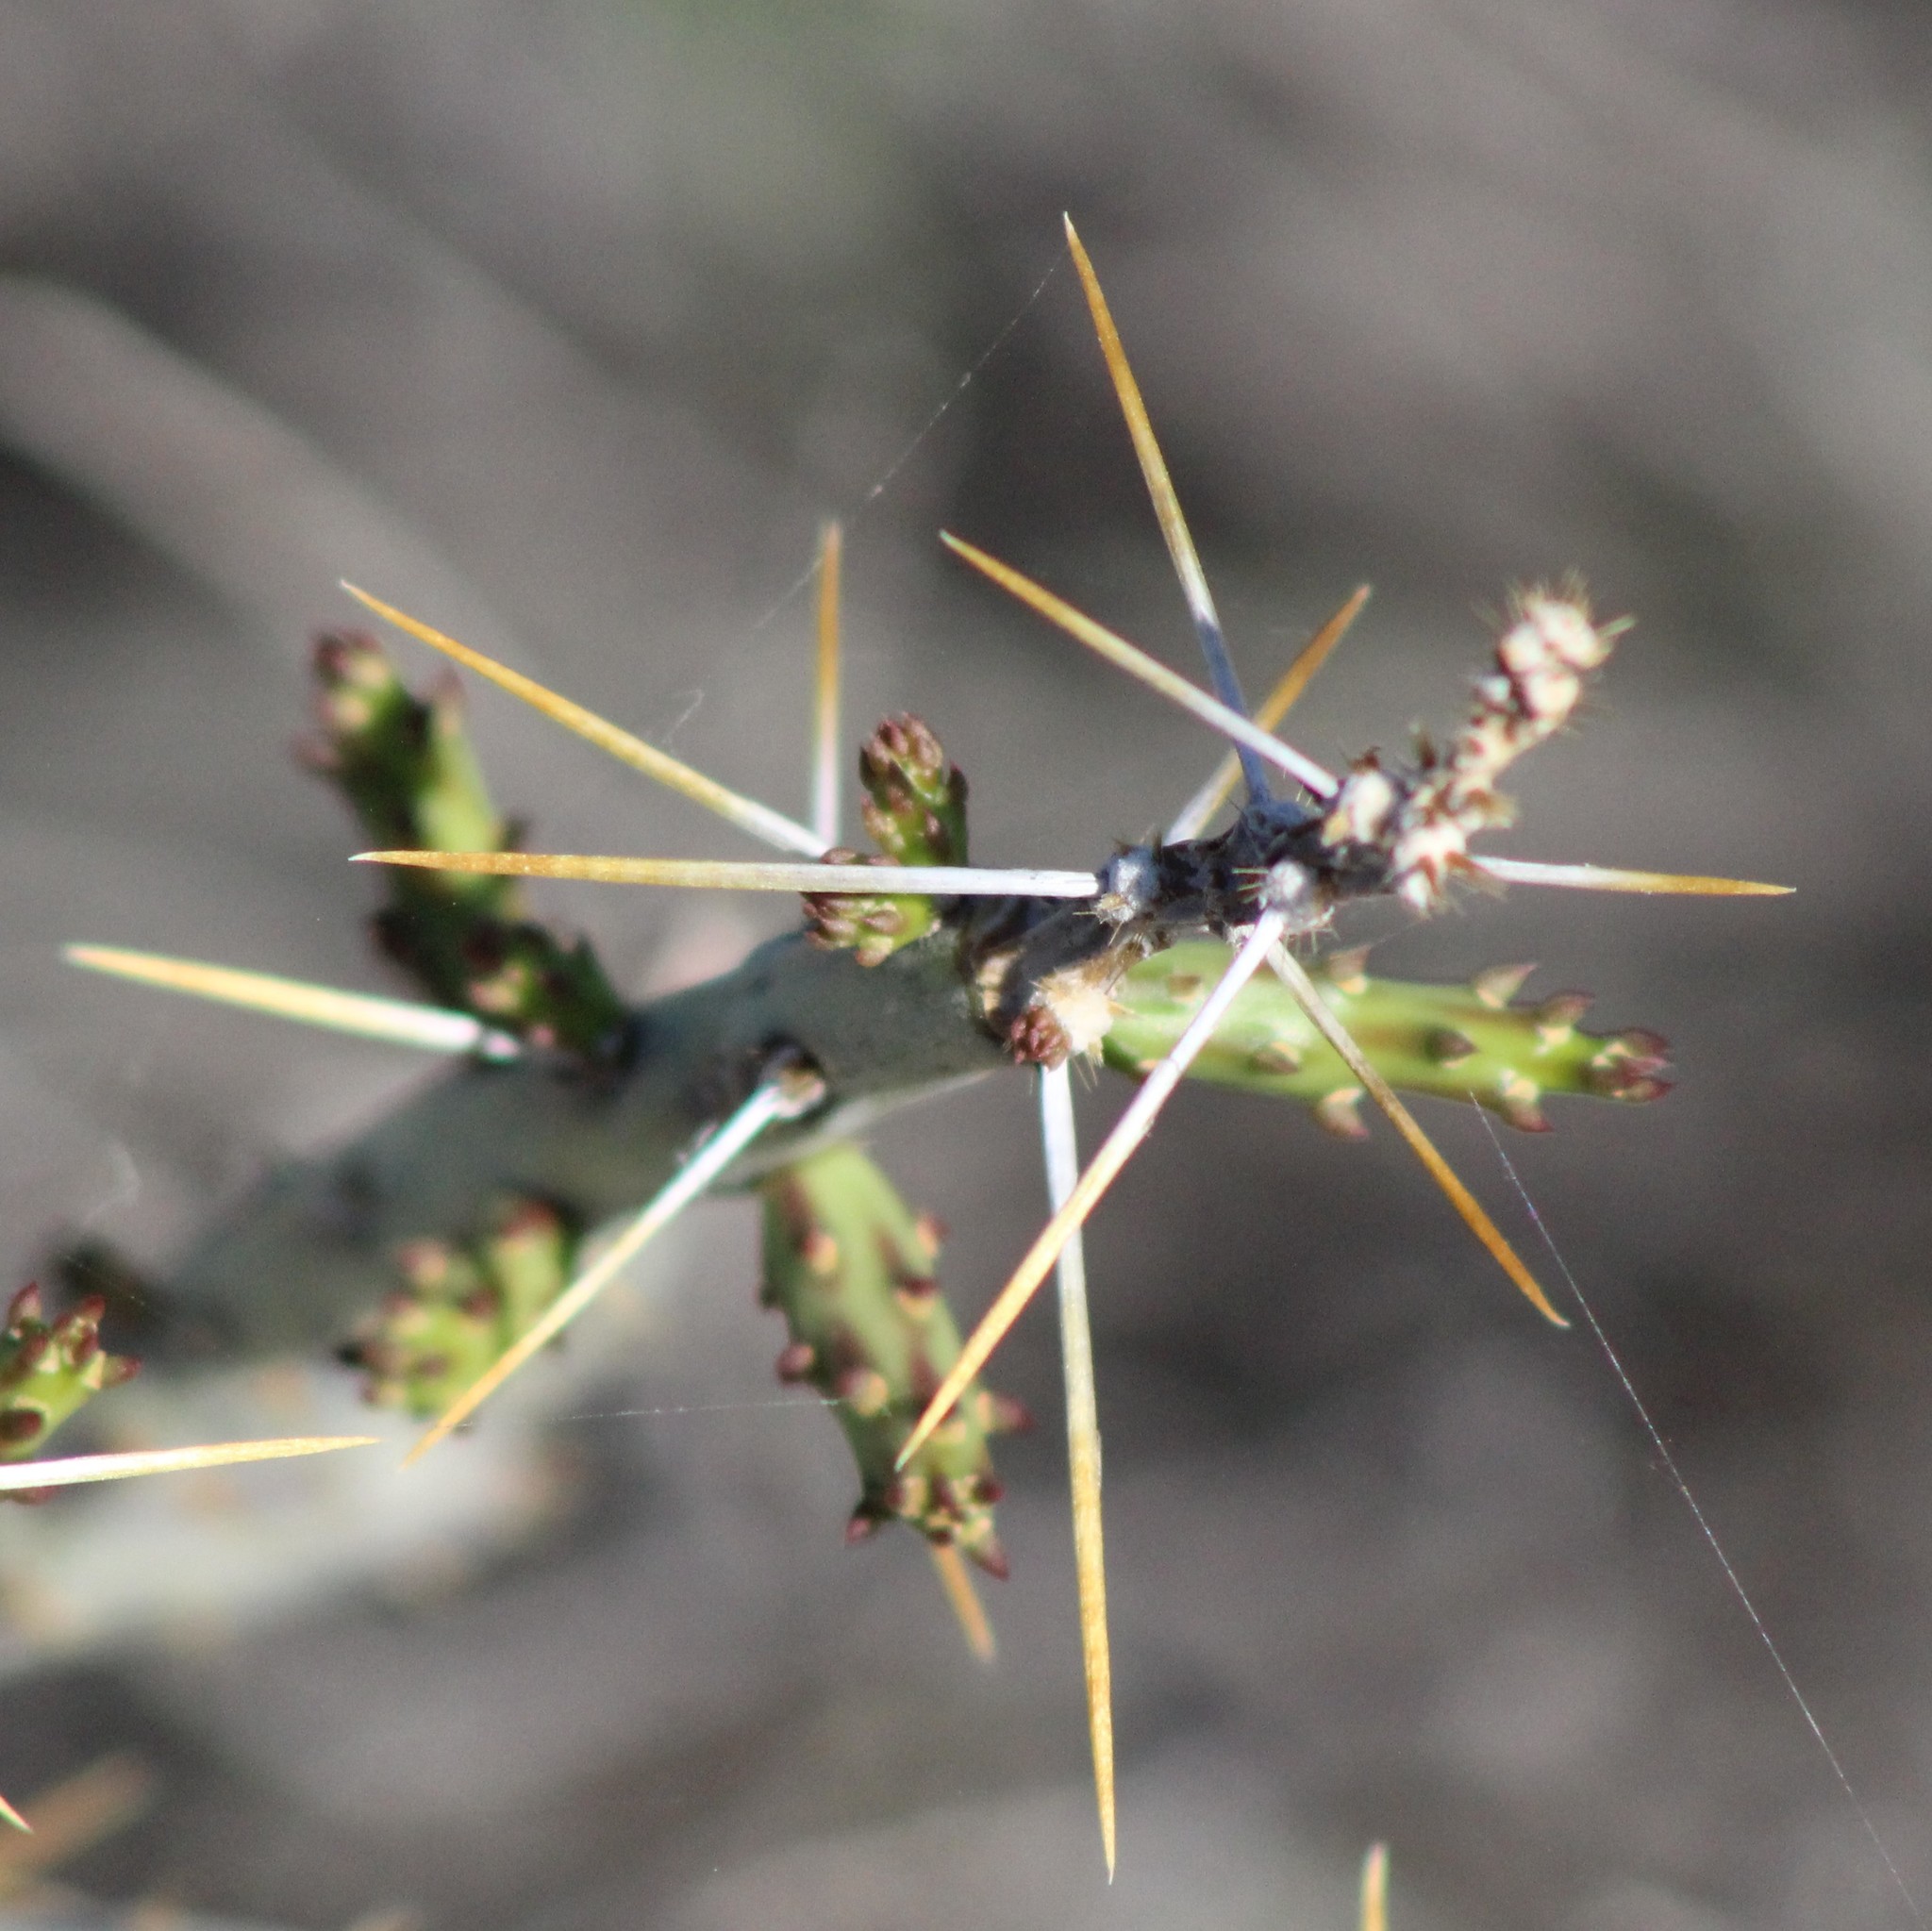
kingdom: Plantae
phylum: Tracheophyta
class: Magnoliopsida
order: Caryophyllales
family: Cactaceae
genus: Cylindropuntia
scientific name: Cylindropuntia leptocaulis
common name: Christmas cactus
